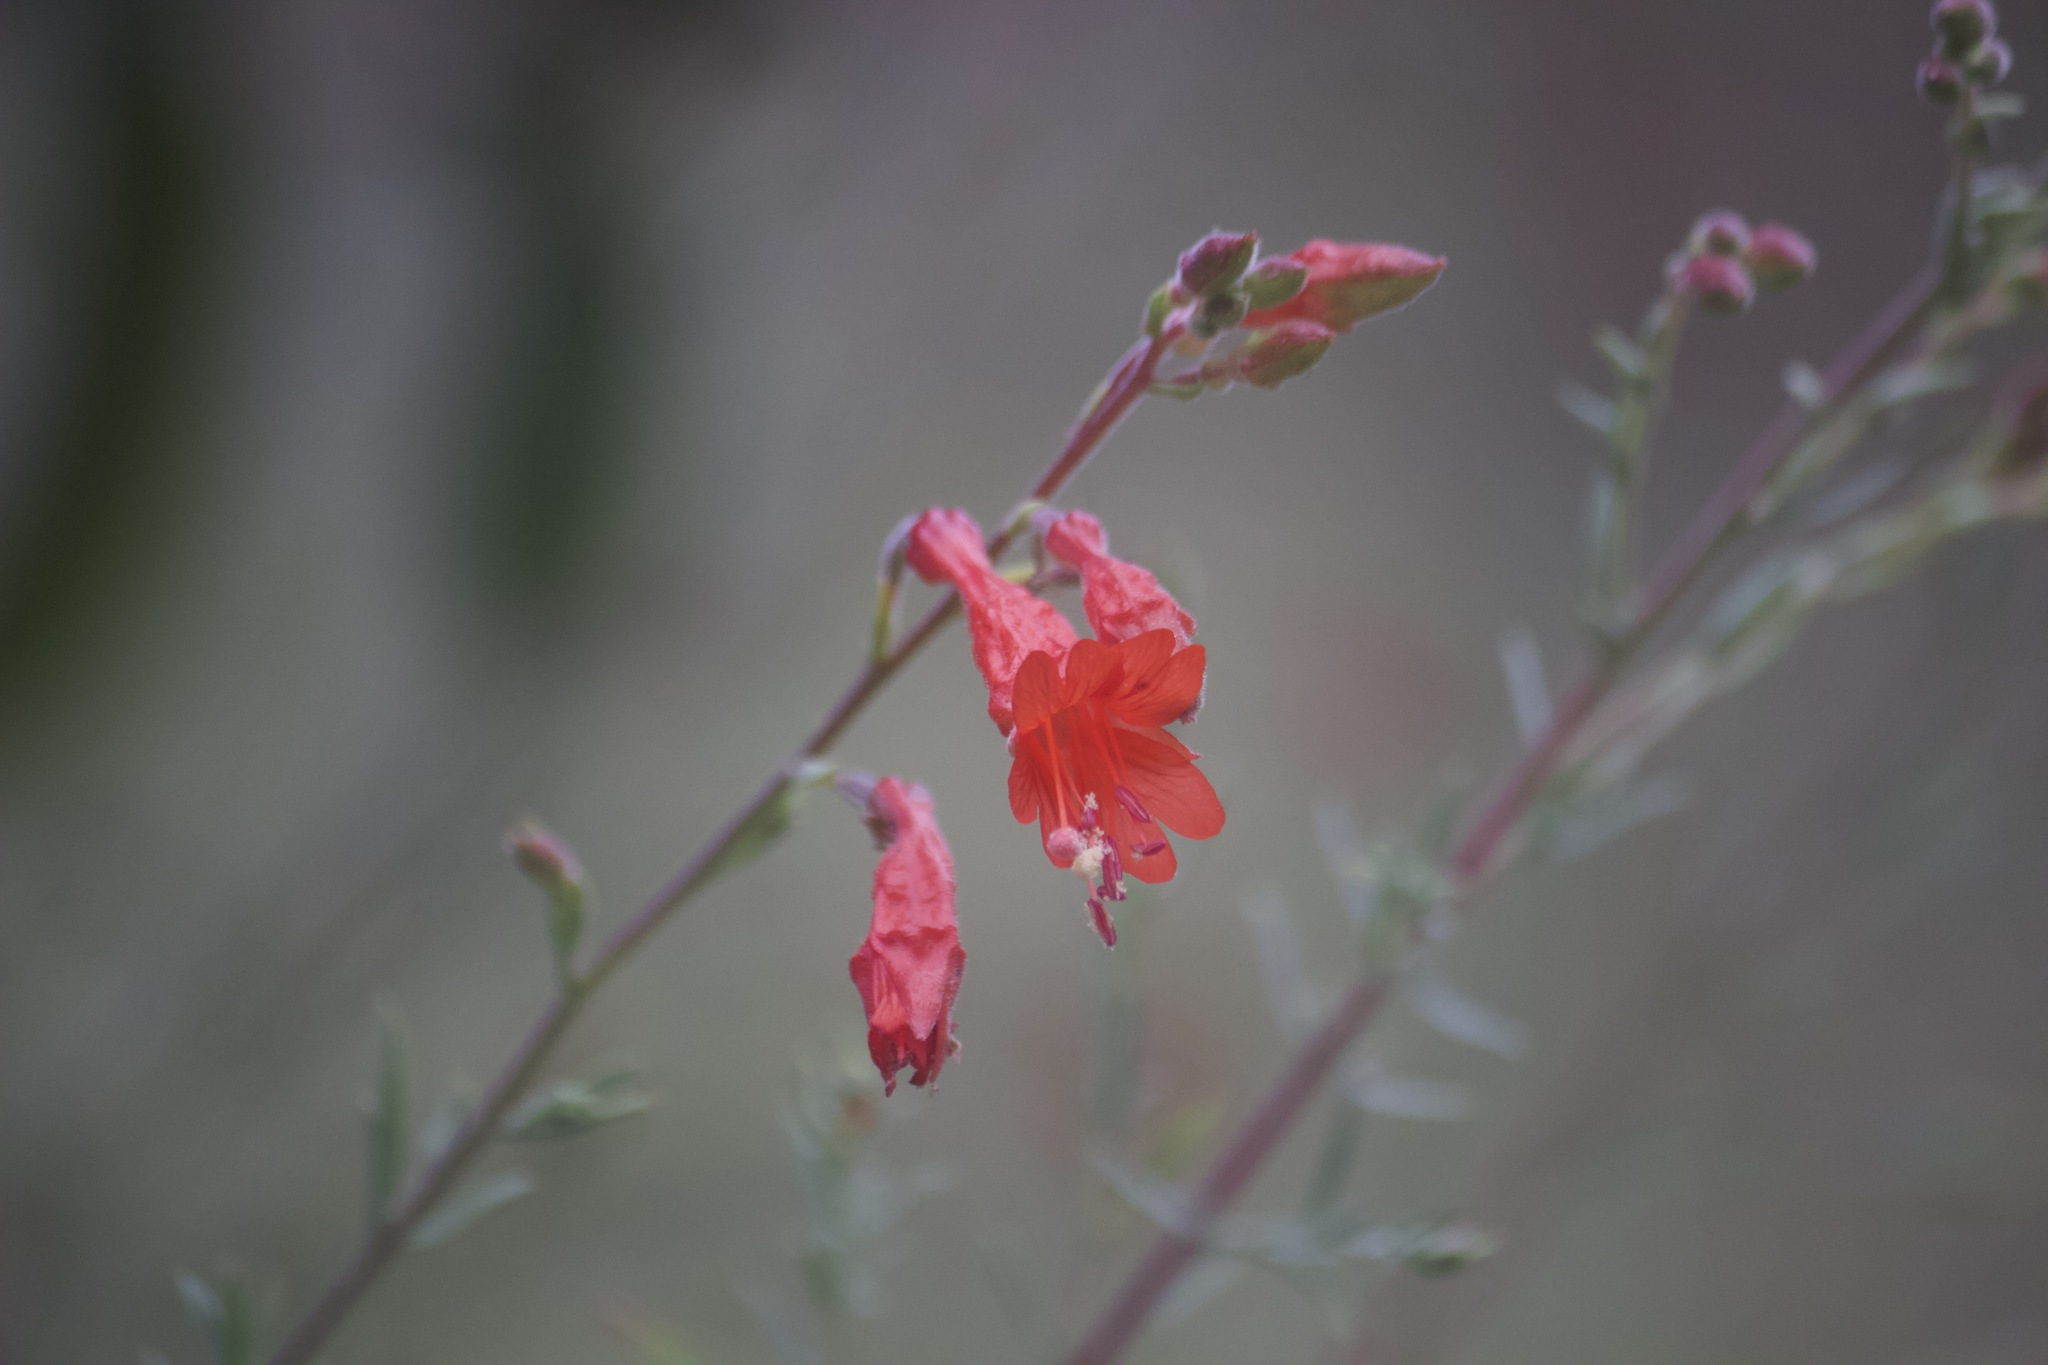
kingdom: Plantae
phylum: Tracheophyta
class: Magnoliopsida
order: Myrtales
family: Onagraceae
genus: Epilobium
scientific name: Epilobium canum
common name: California-fuchsia
